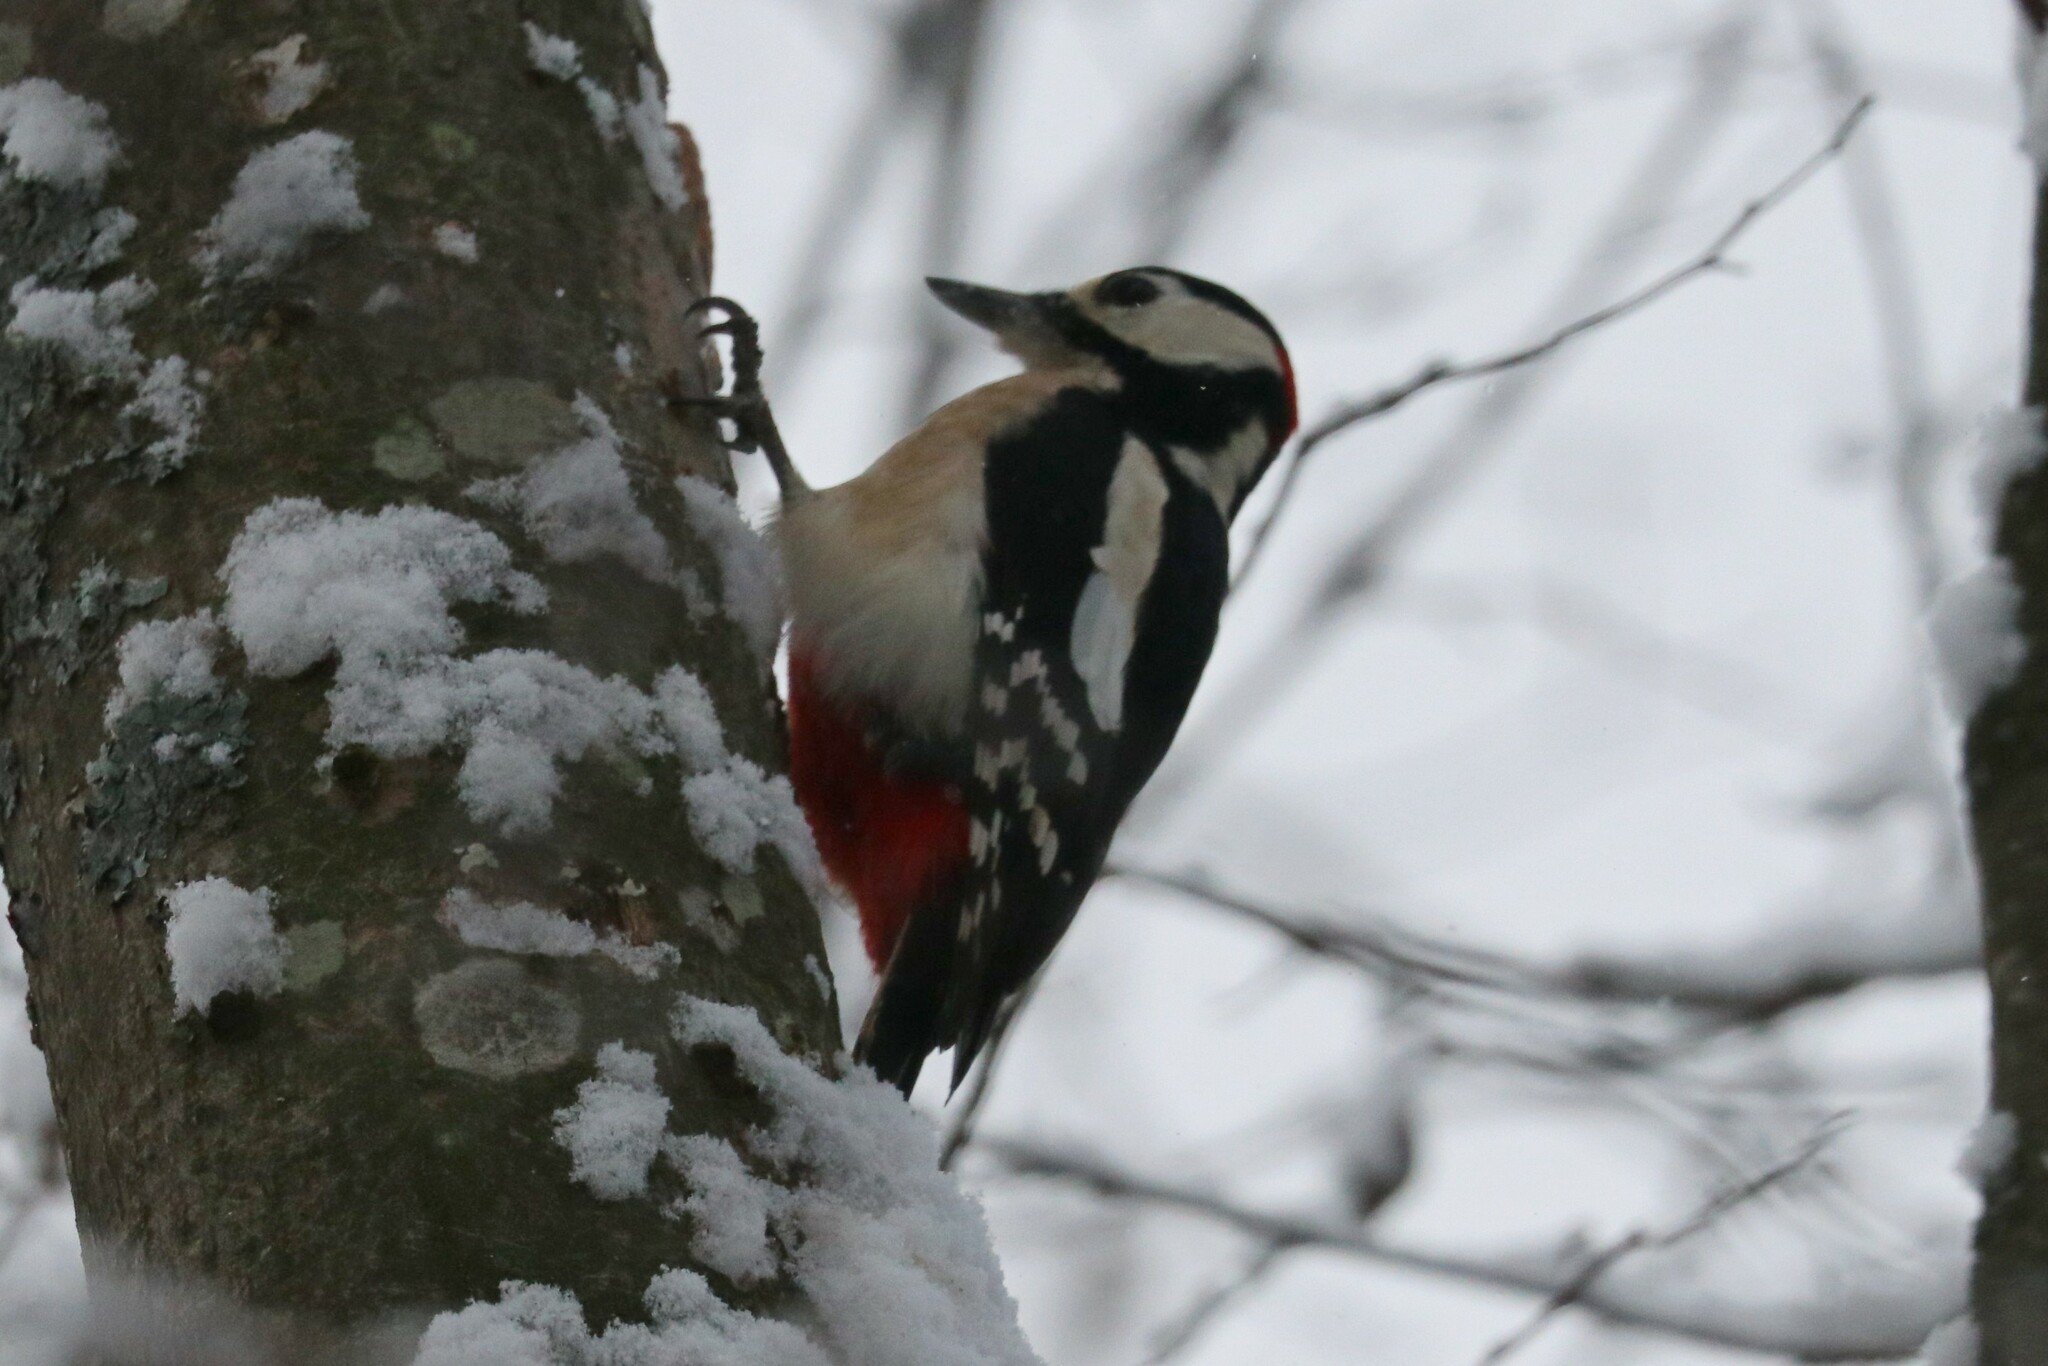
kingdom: Animalia
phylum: Chordata
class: Aves
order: Piciformes
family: Picidae
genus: Dendrocopos
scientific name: Dendrocopos major
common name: Great spotted woodpecker
